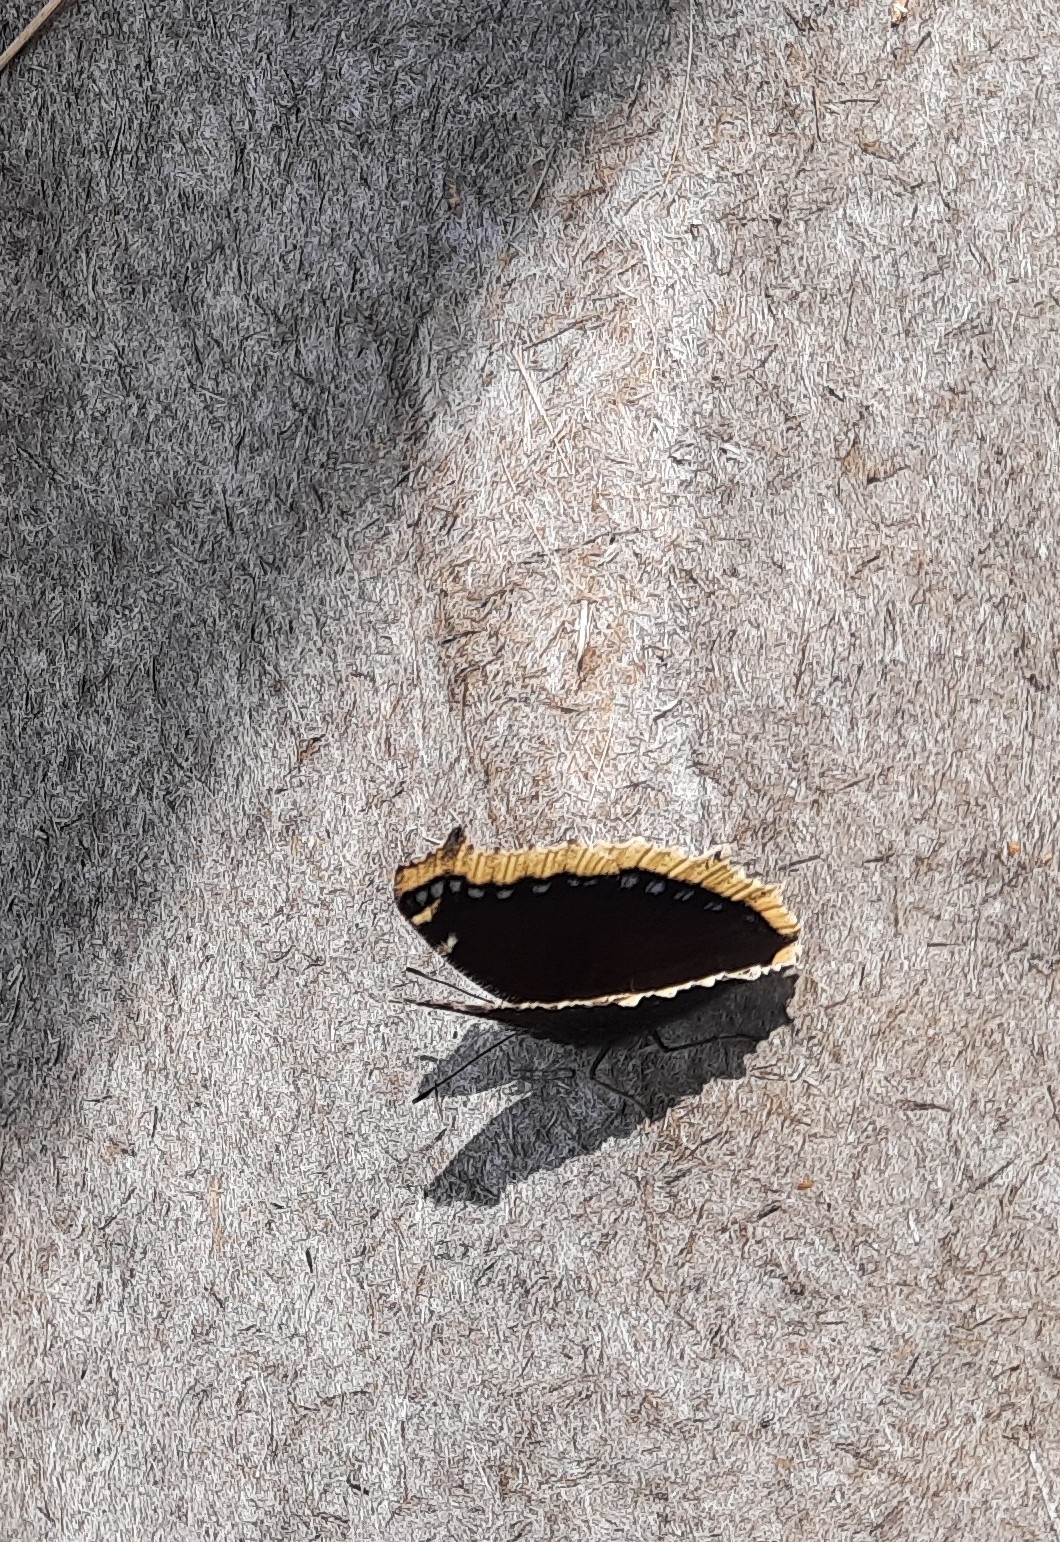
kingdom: Animalia
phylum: Arthropoda
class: Insecta
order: Lepidoptera
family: Nymphalidae
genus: Nymphalis
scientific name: Nymphalis antiopa
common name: Camberwell beauty
